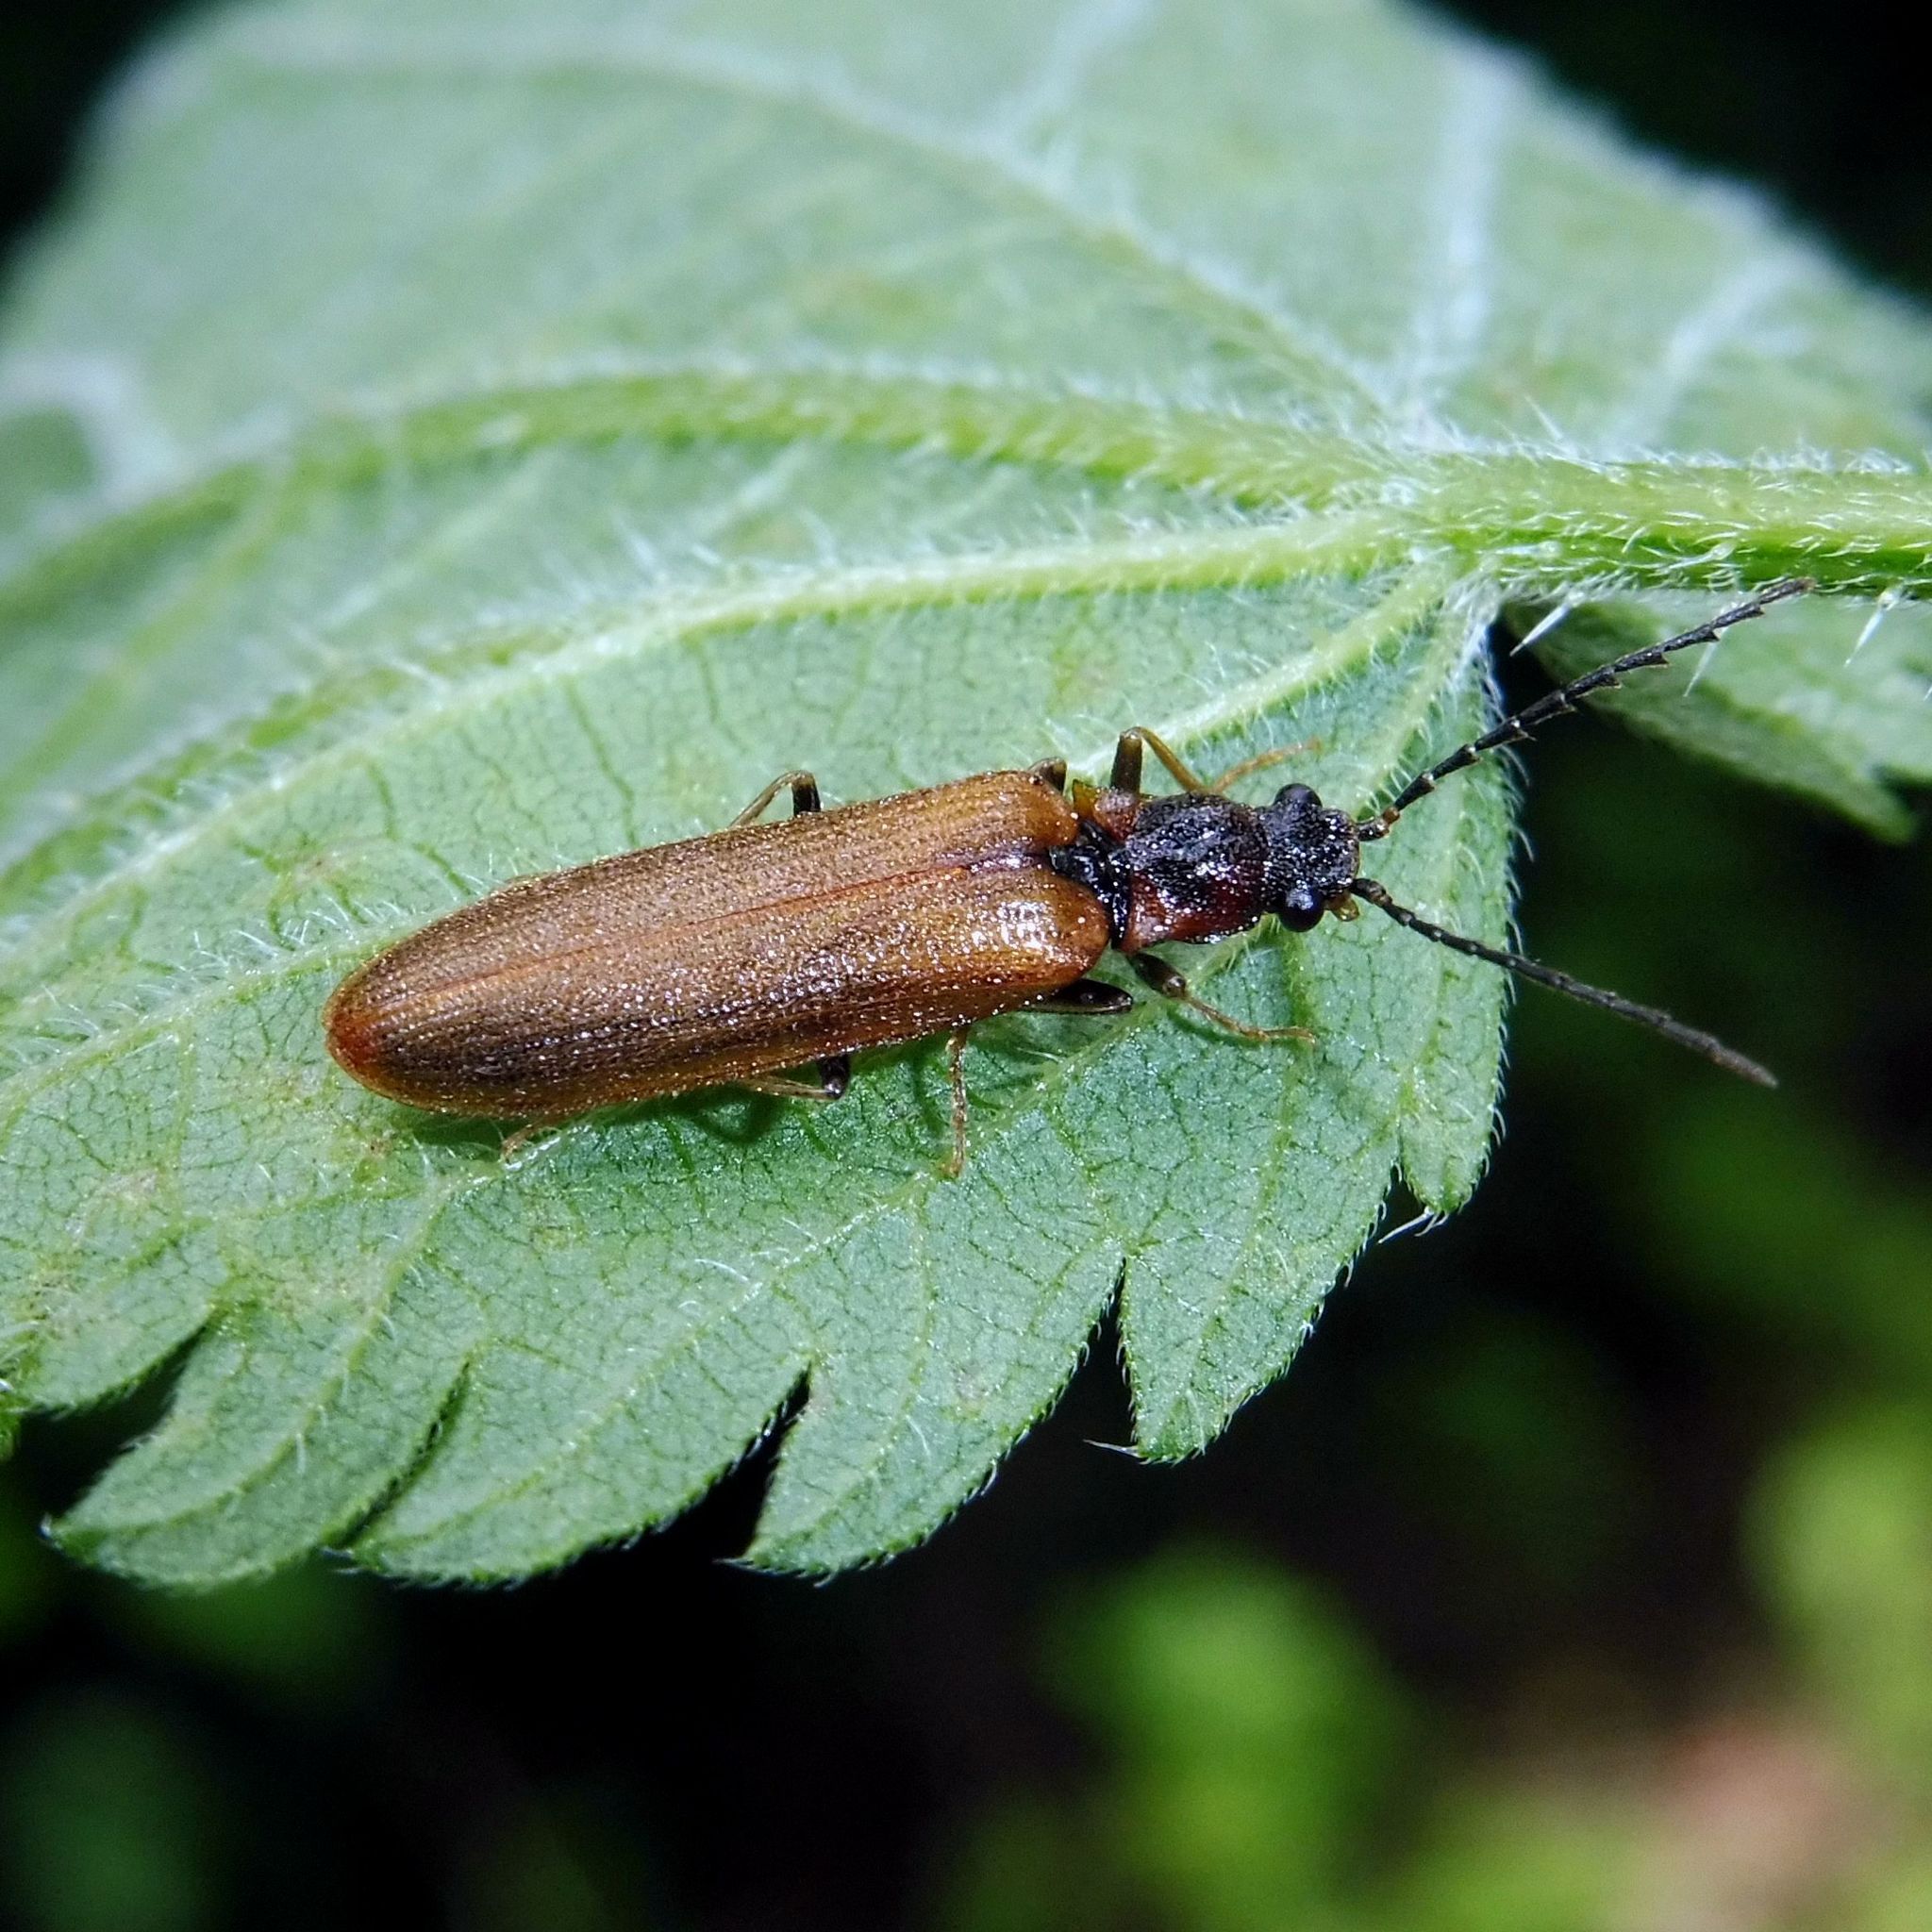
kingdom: Animalia
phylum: Arthropoda
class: Insecta
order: Coleoptera
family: Elateridae
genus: Denticollis
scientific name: Denticollis linearis
